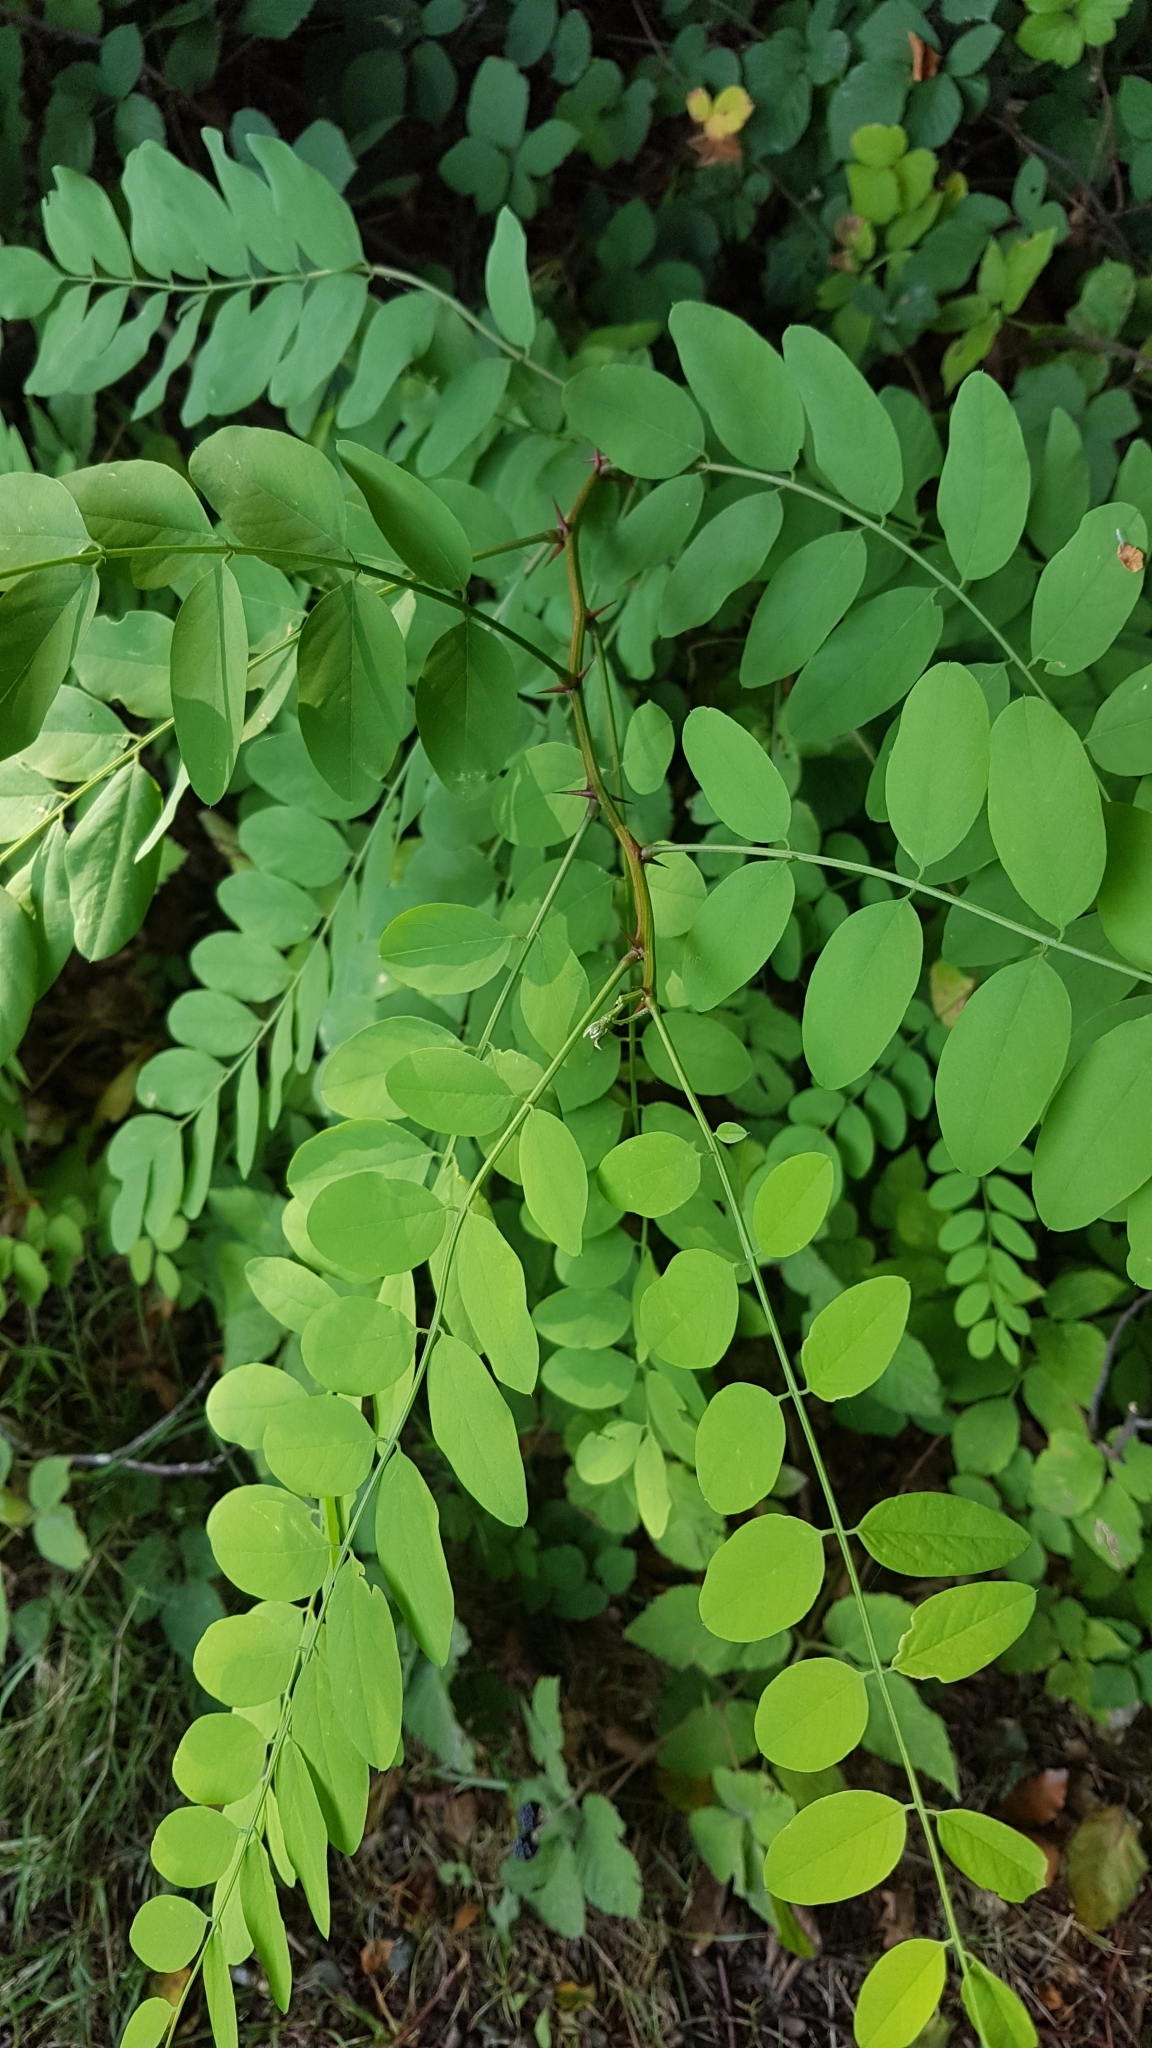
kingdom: Plantae
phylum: Tracheophyta
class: Magnoliopsida
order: Fabales
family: Fabaceae
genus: Robinia
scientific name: Robinia pseudoacacia
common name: Black locust
